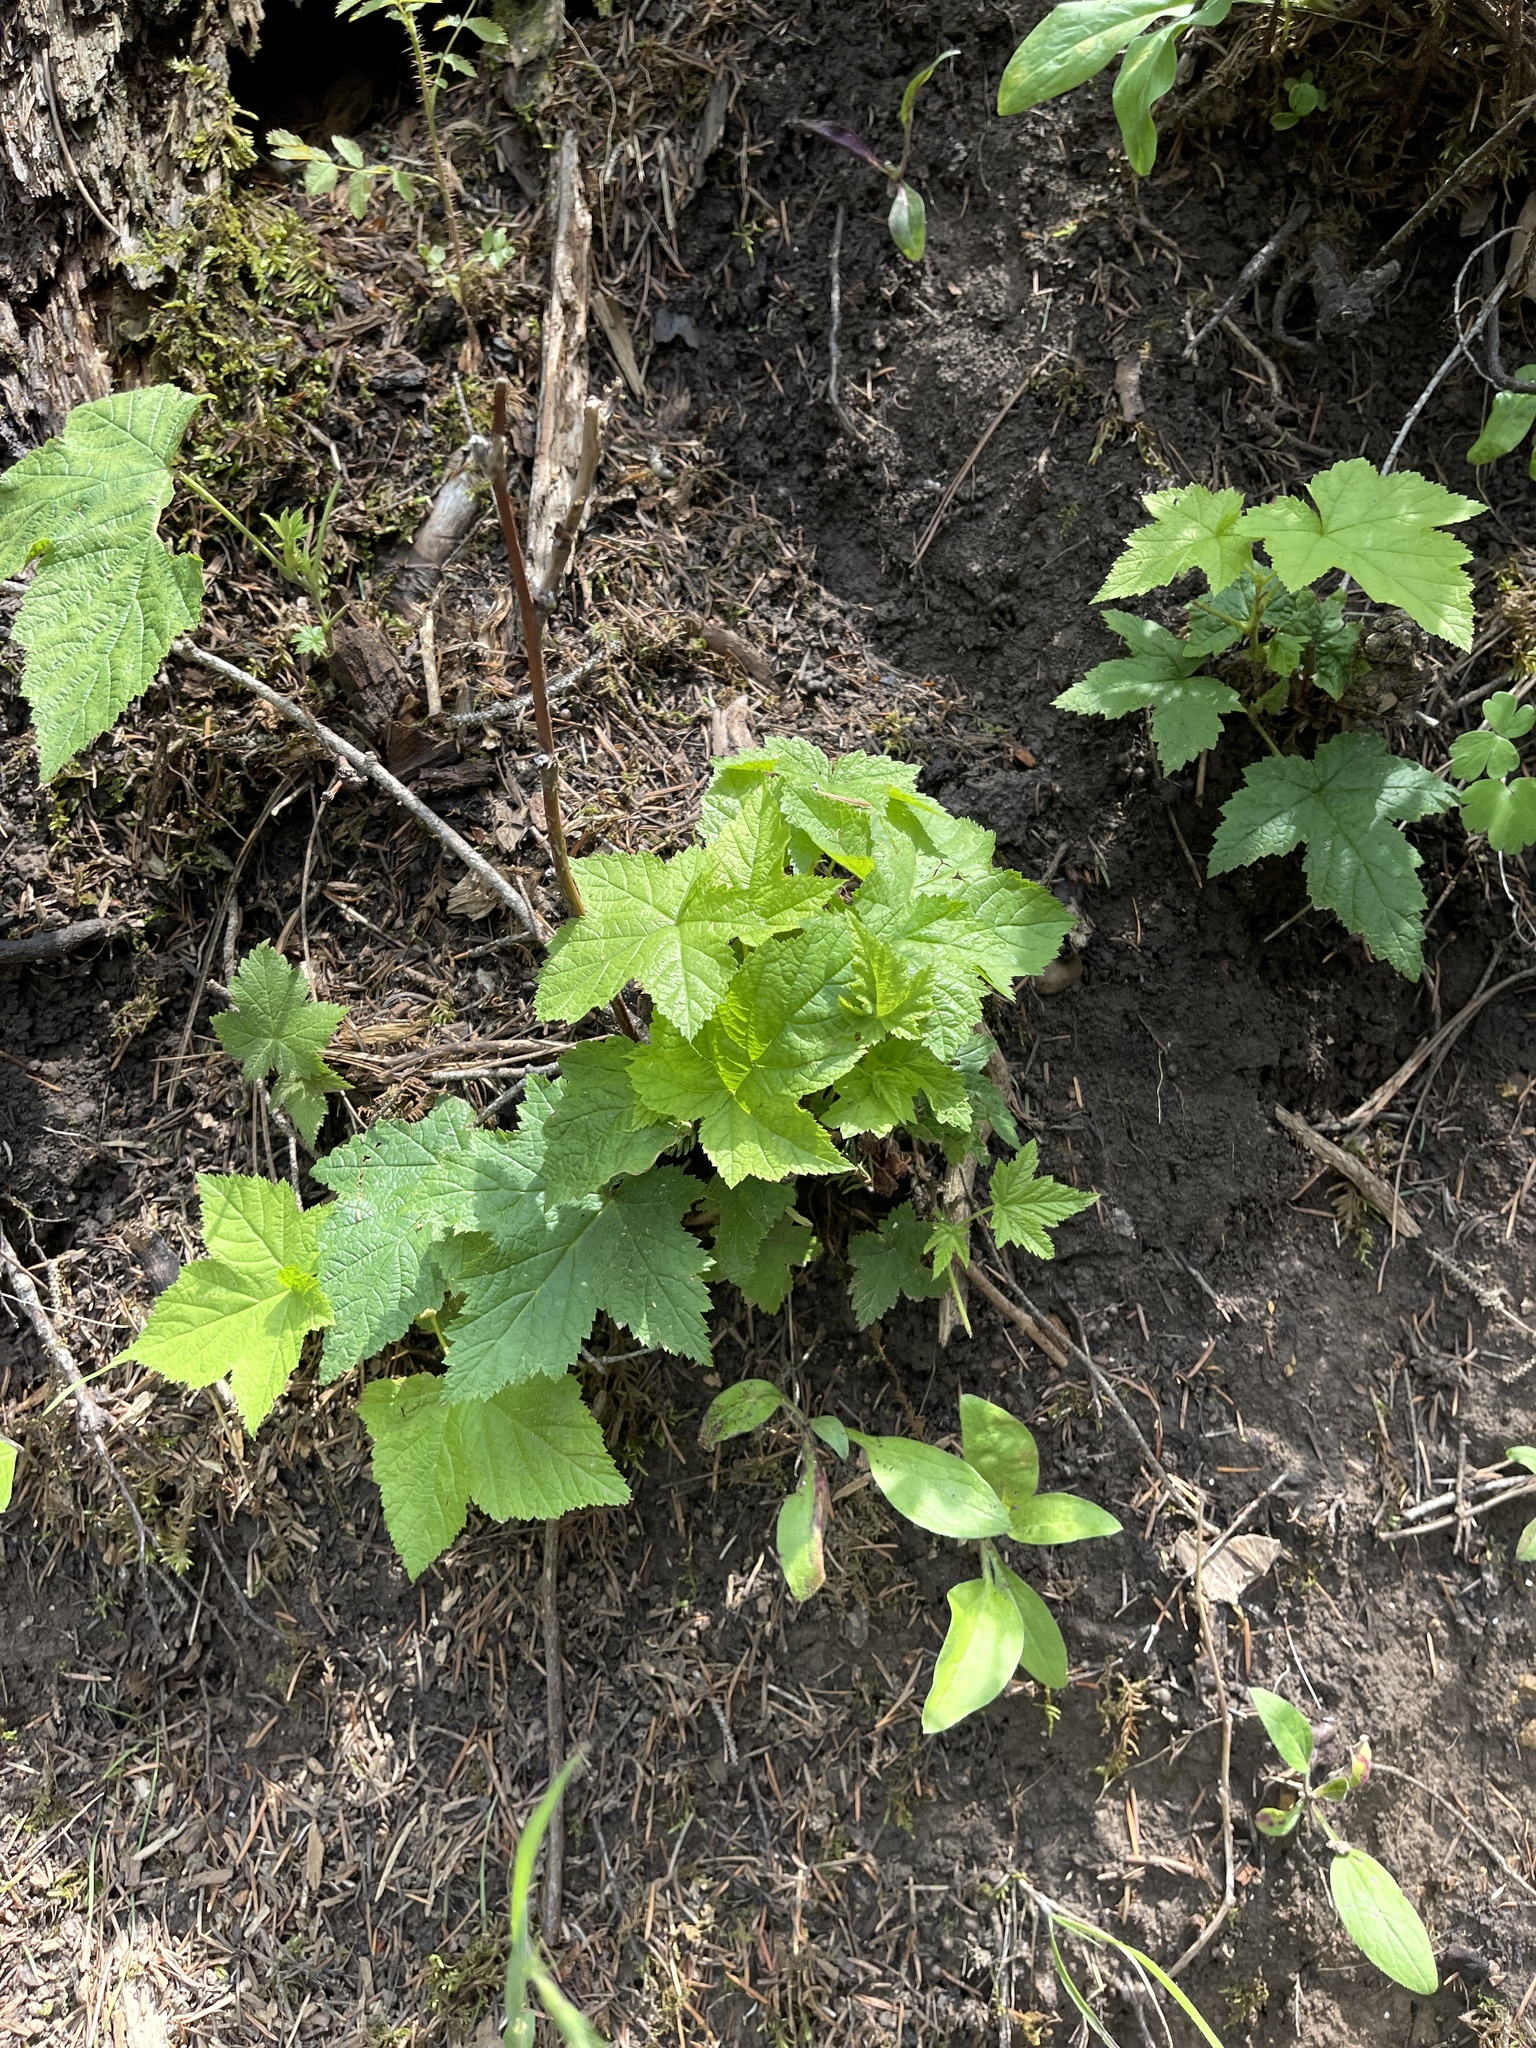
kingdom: Plantae
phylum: Tracheophyta
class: Magnoliopsida
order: Rosales
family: Rosaceae
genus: Rubus
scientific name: Rubus parviflorus
